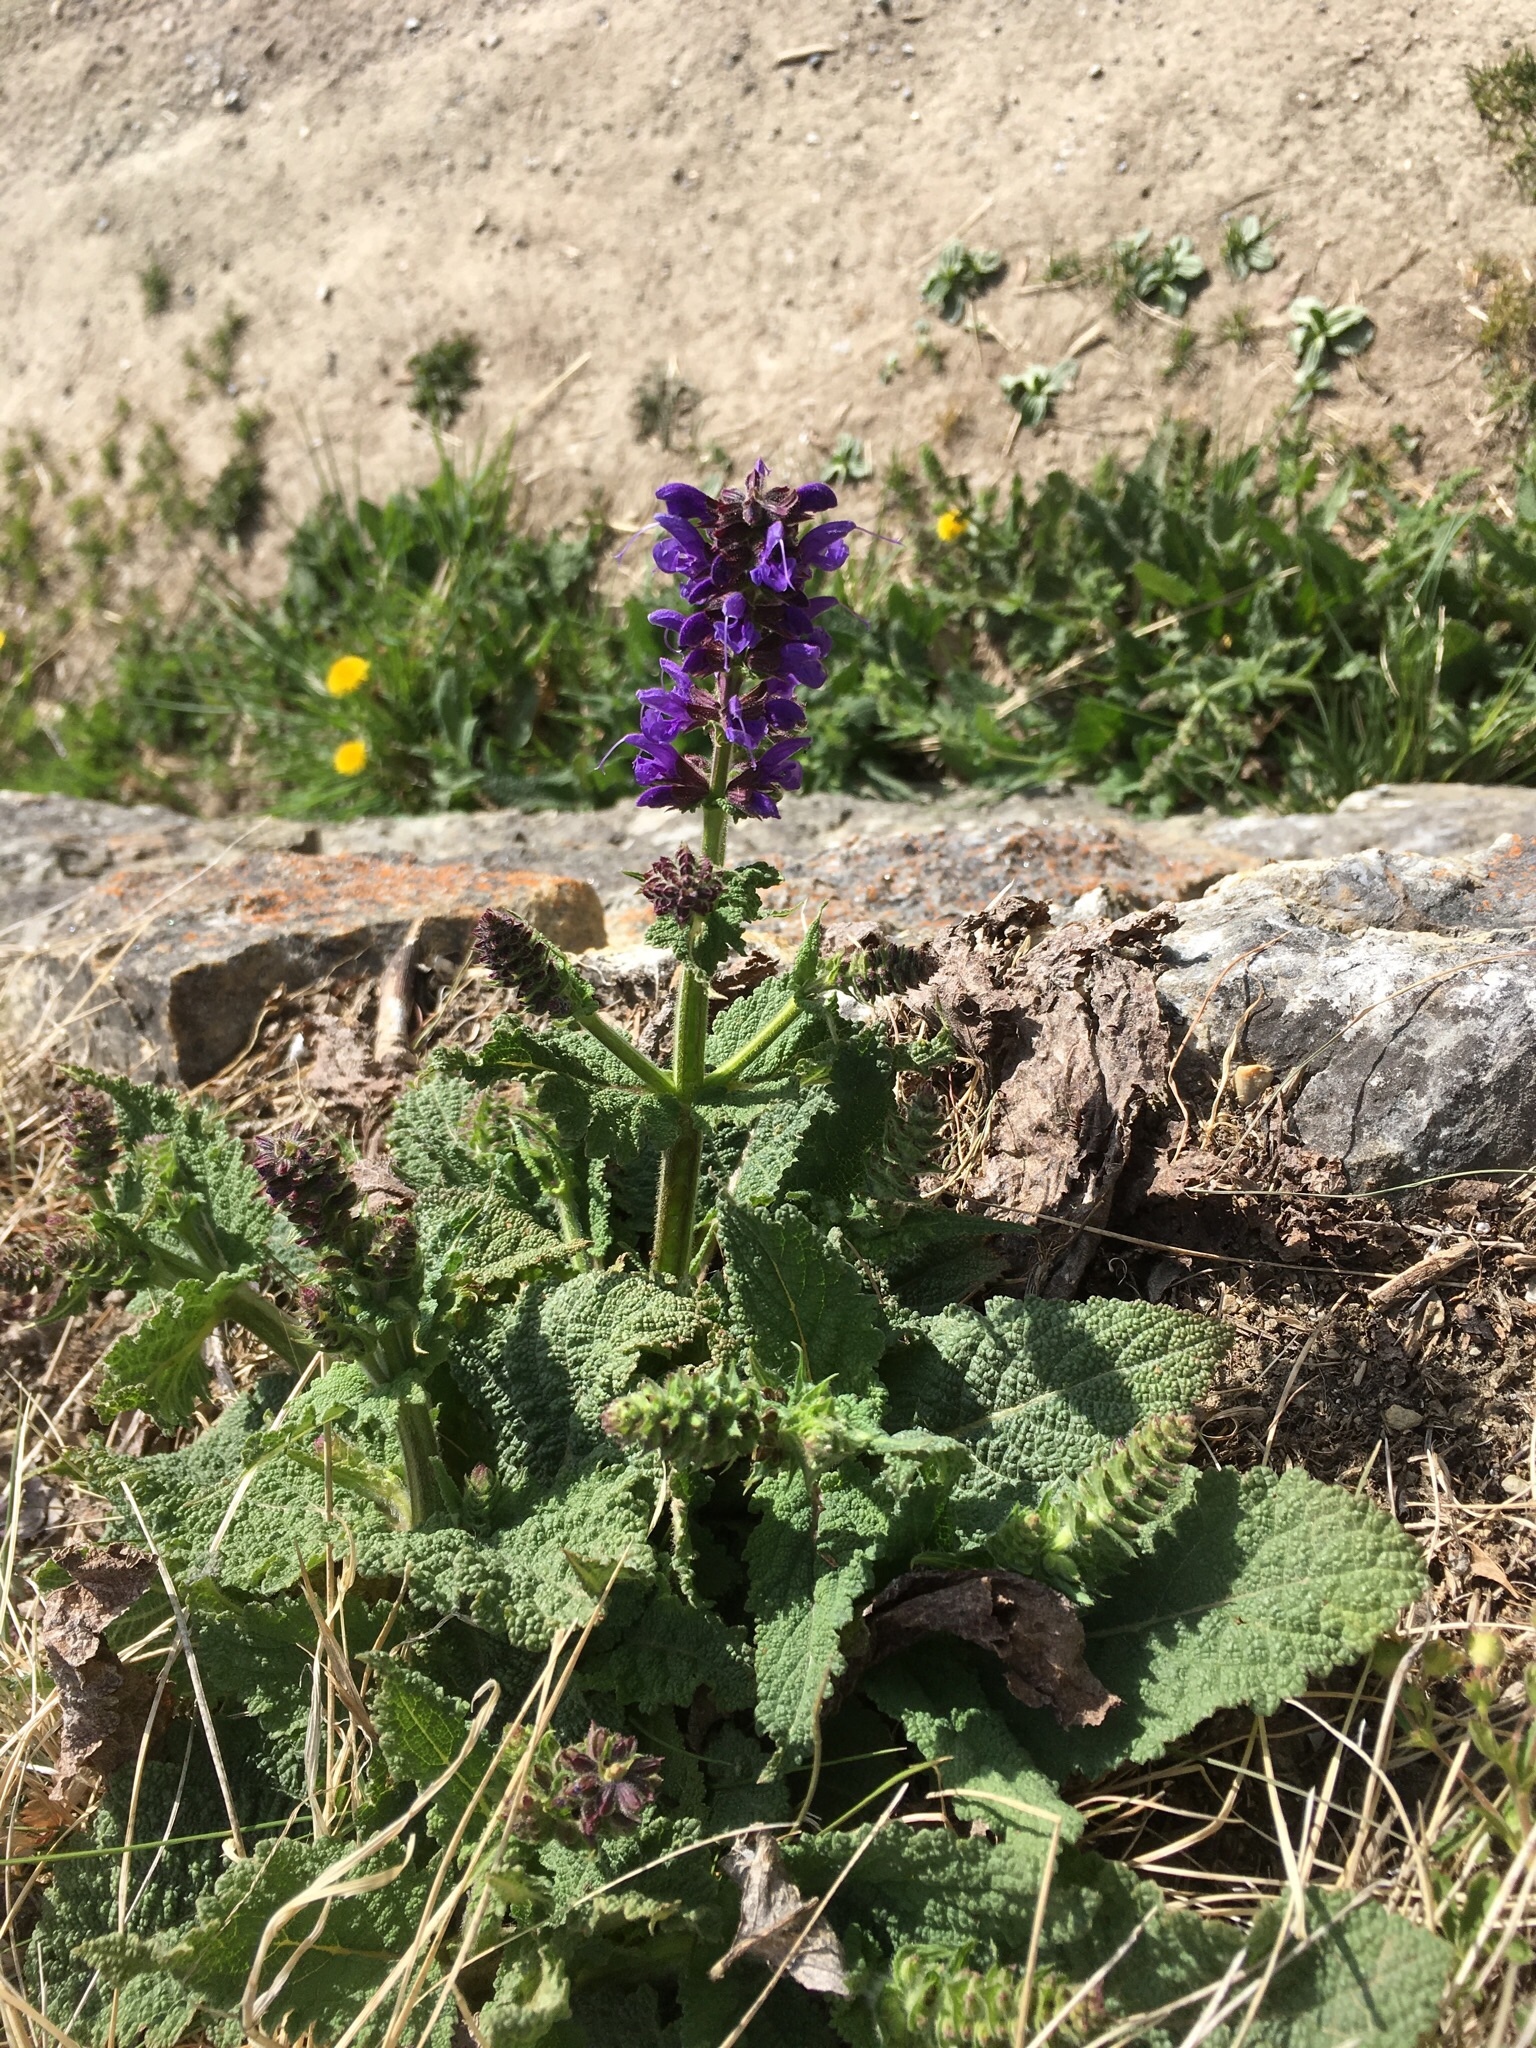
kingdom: Plantae
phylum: Tracheophyta
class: Magnoliopsida
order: Lamiales
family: Lamiaceae
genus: Salvia
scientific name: Salvia pratensis
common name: Meadow sage
